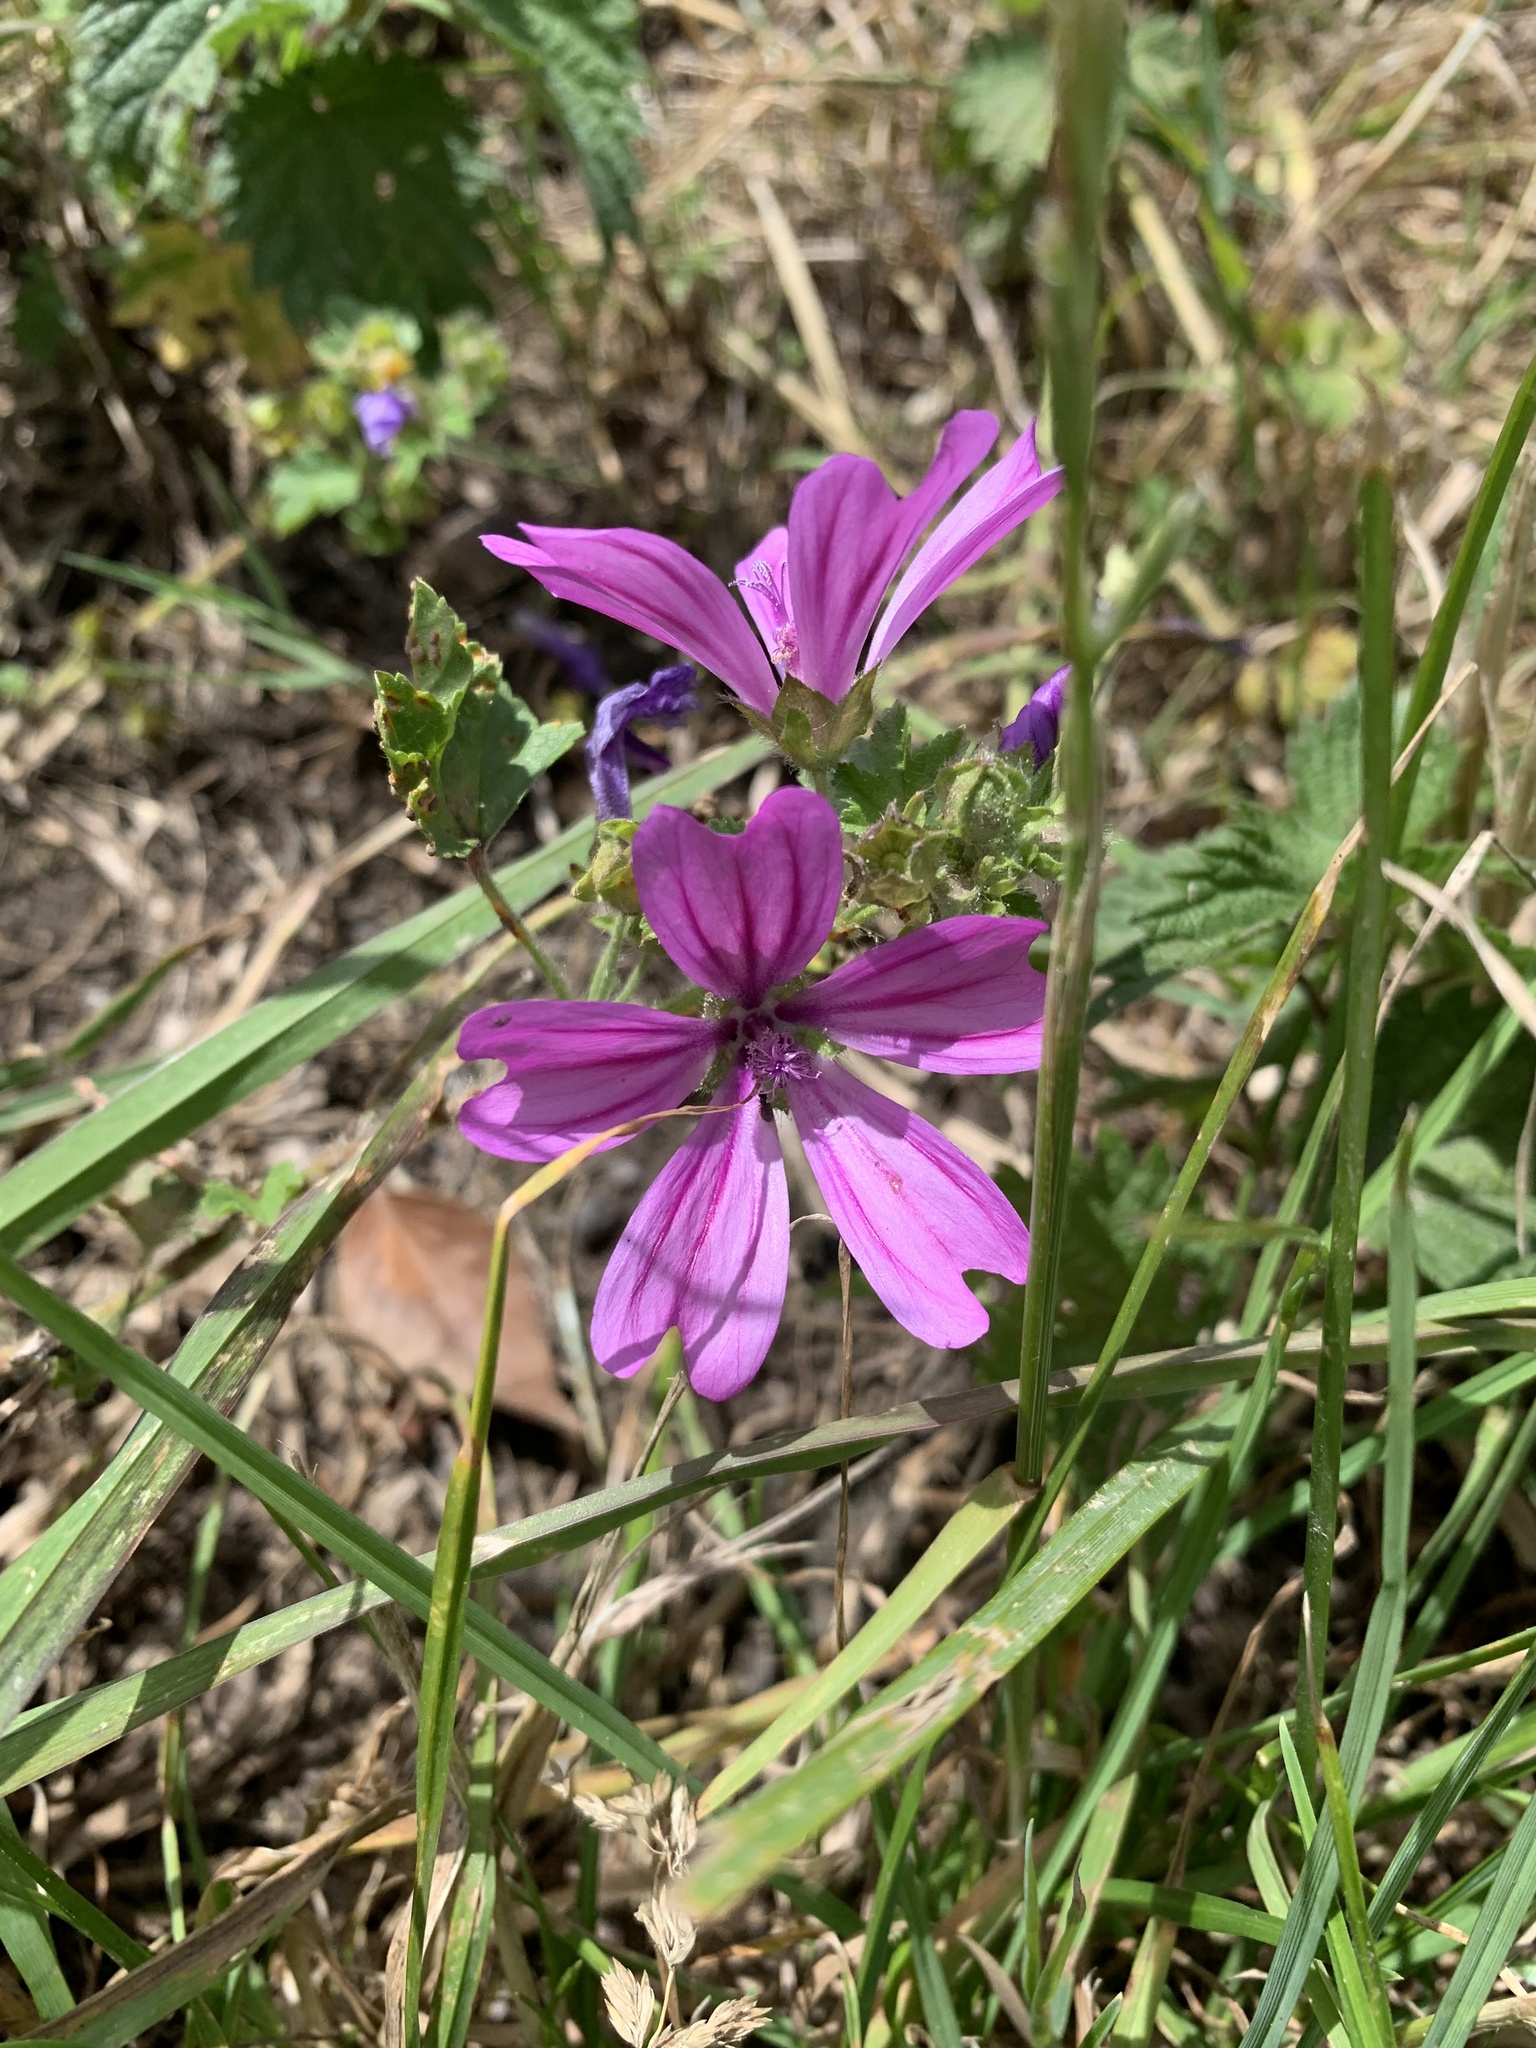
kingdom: Plantae
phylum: Tracheophyta
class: Magnoliopsida
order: Malvales
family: Malvaceae
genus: Malva
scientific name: Malva sylvestris
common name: Common mallow
